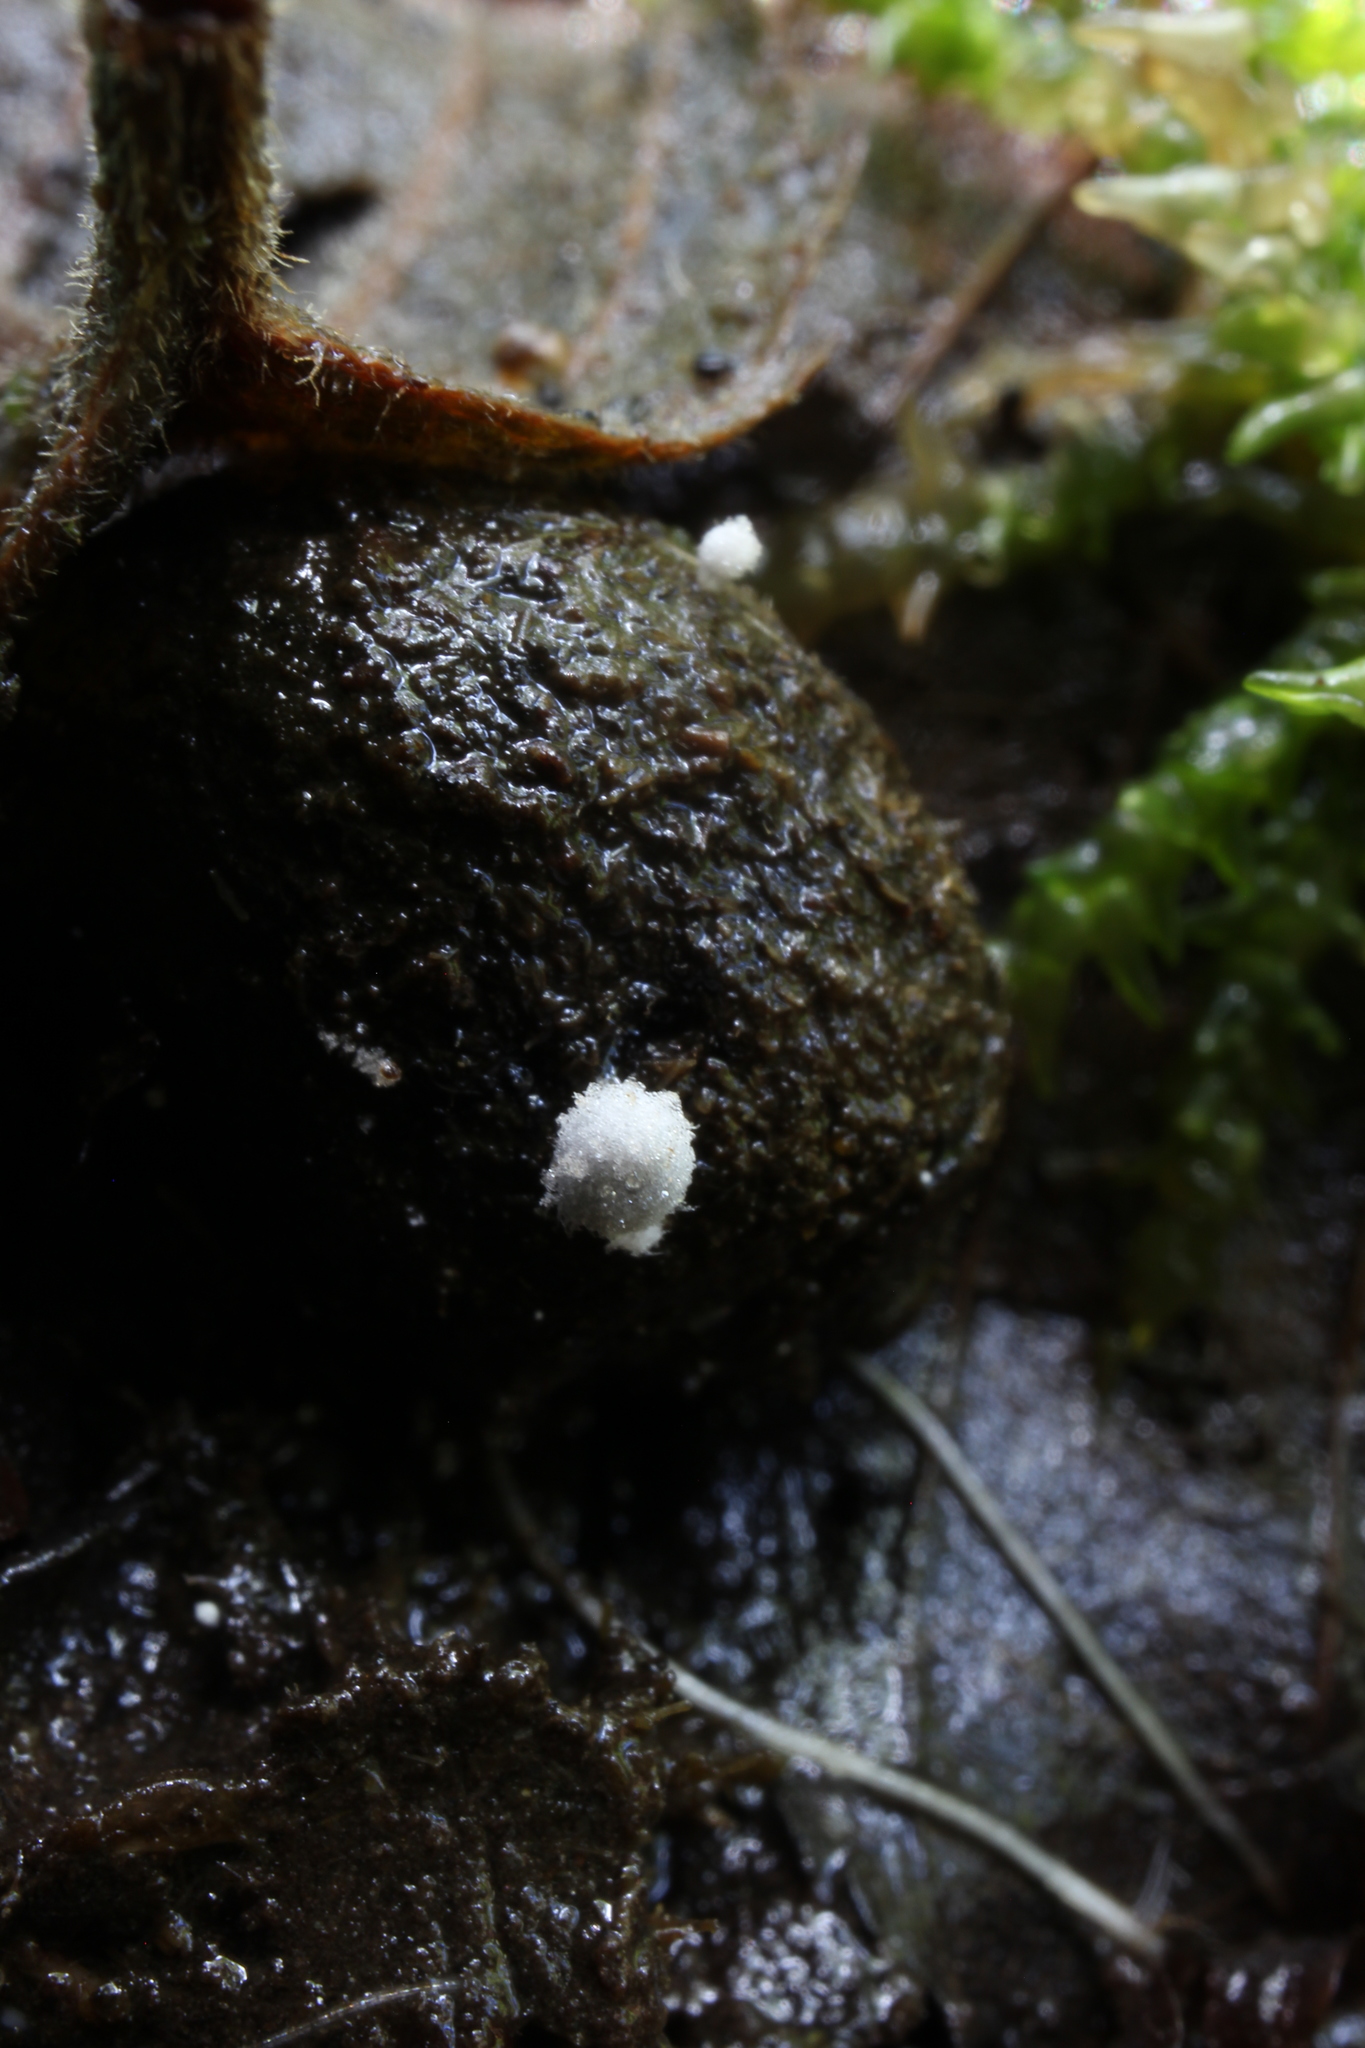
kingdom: Fungi
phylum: Basidiomycota
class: Agaricomycetes
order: Agaricales
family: Psathyrellaceae
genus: Coprinellus
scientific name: Coprinellus heptemerus
